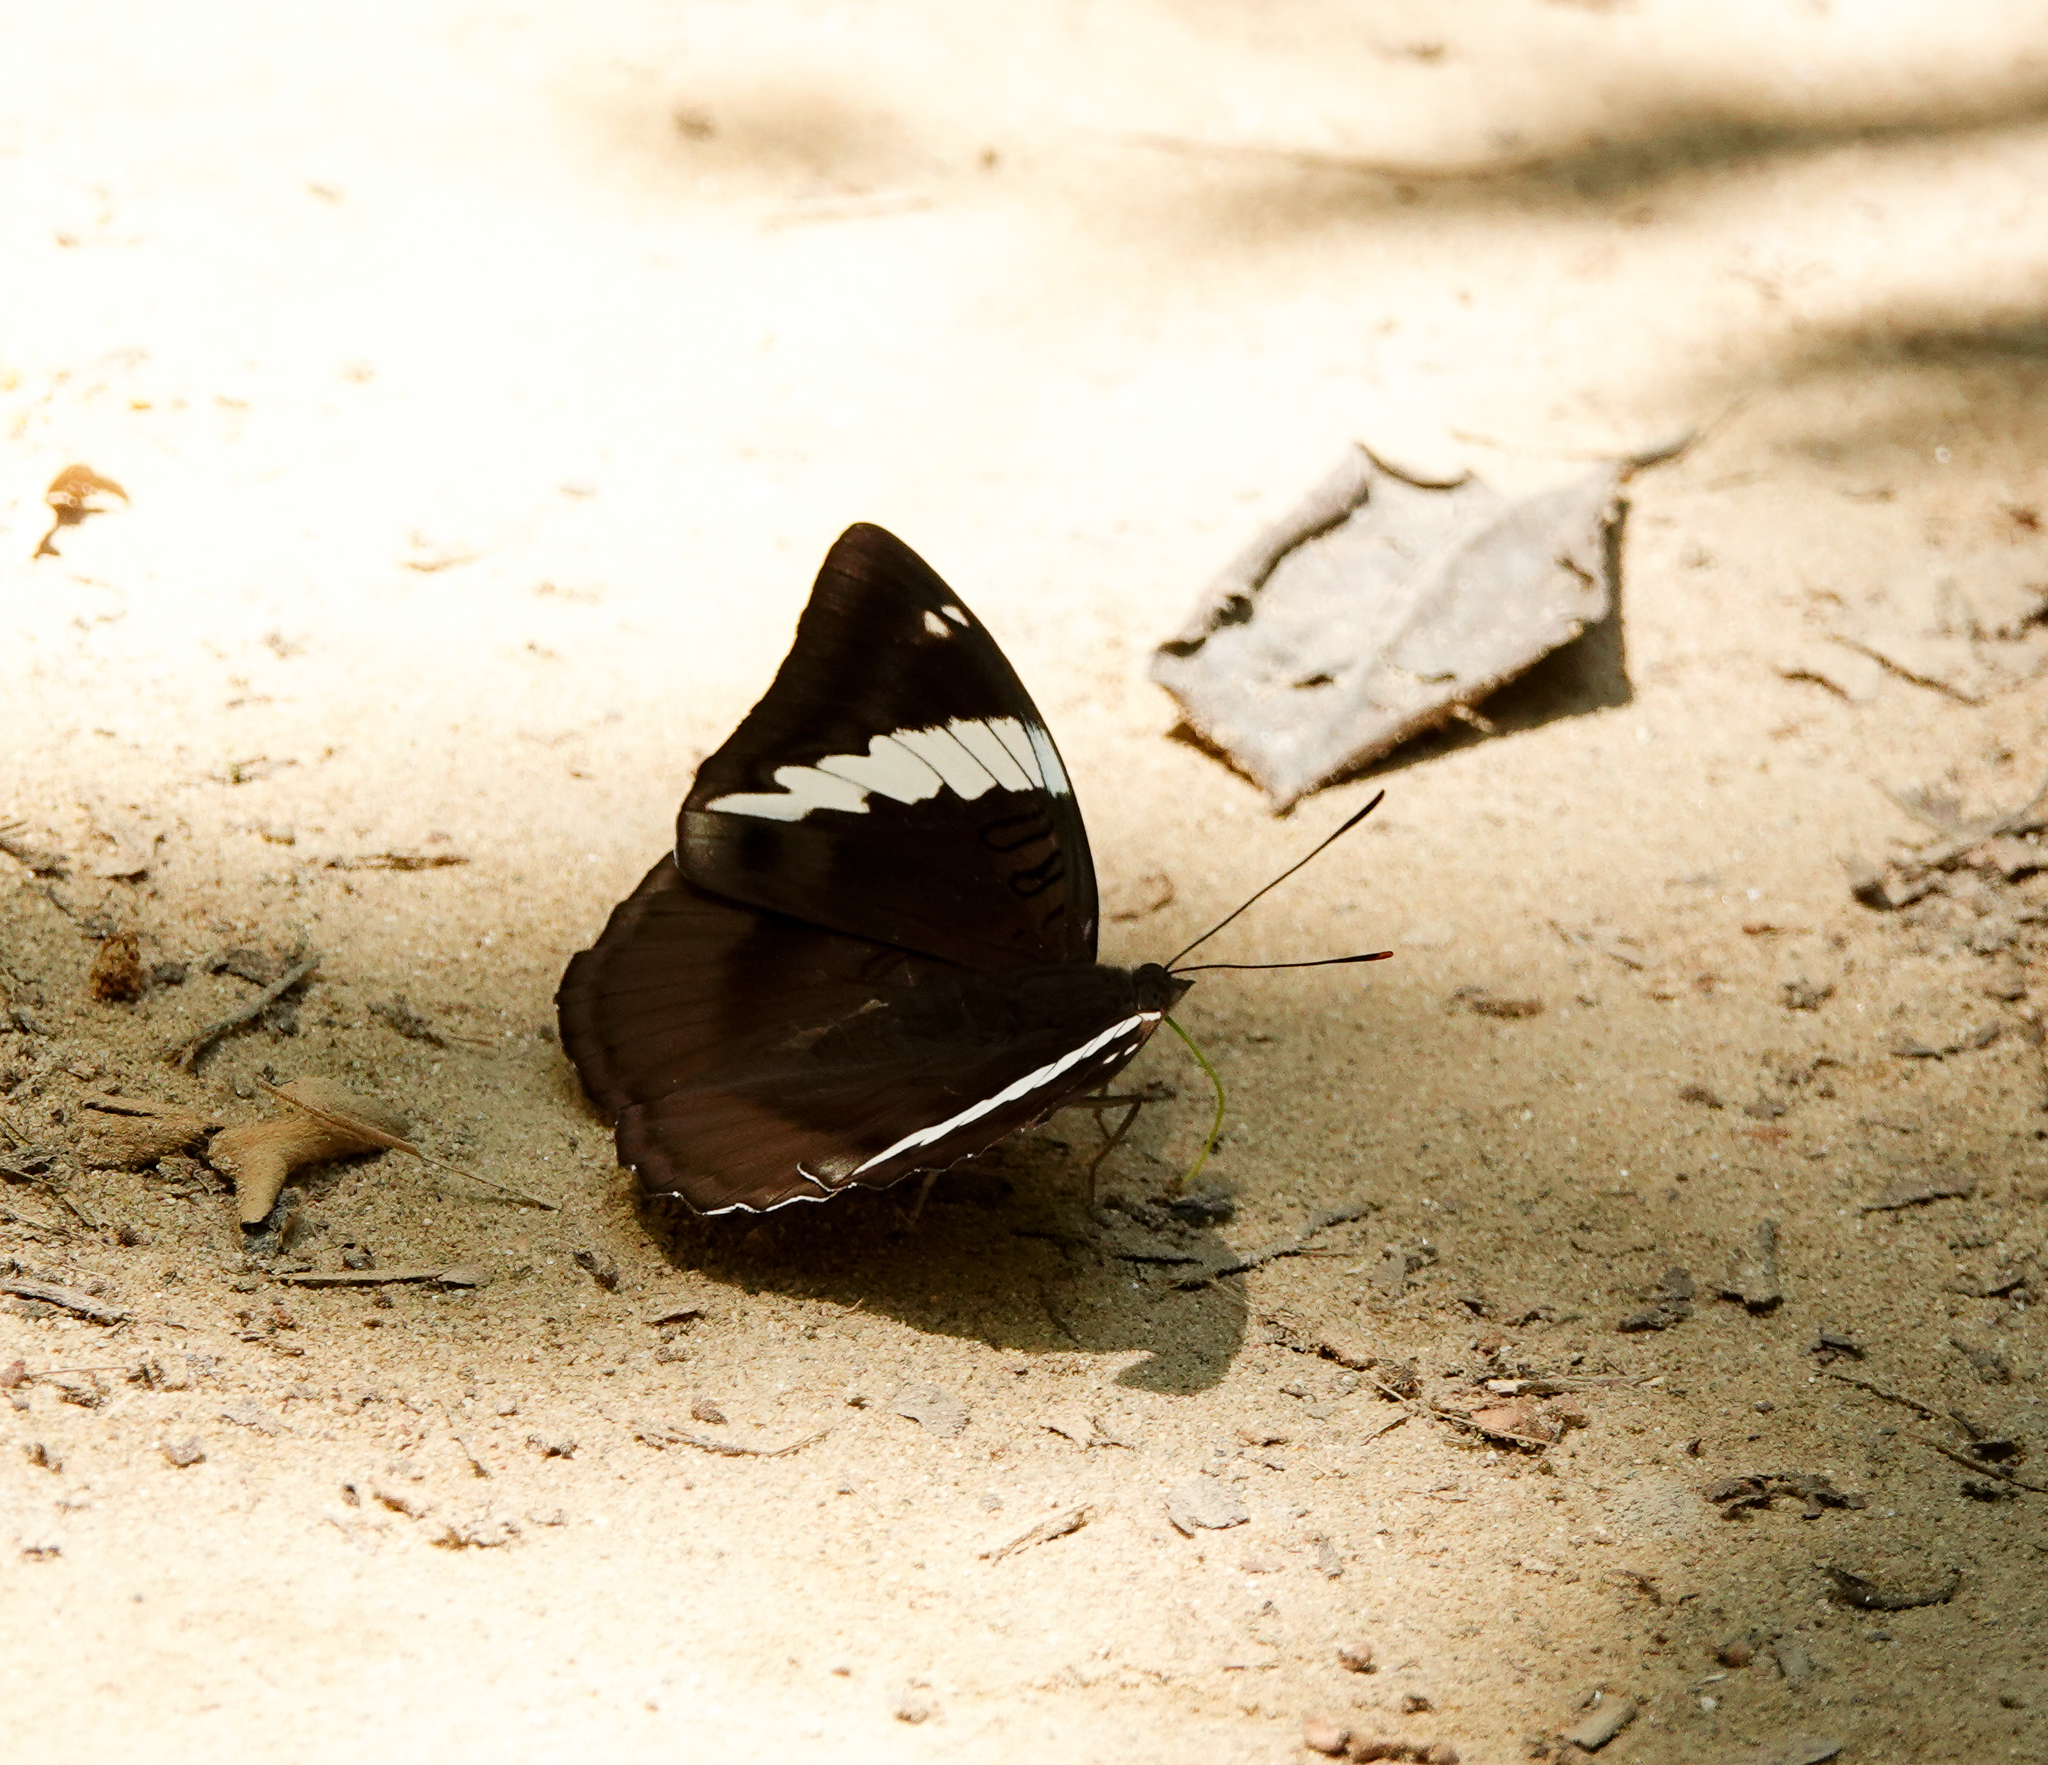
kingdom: Animalia
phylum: Arthropoda
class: Insecta
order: Lepidoptera
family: Nymphalidae
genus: Euthalia
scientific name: Euthalia phemius
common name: White-edged blue baron
